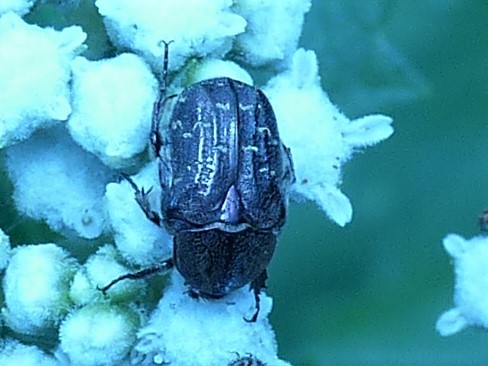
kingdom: Animalia
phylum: Arthropoda
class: Insecta
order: Coleoptera
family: Scarabaeidae
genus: Euphoria
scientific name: Euphoria sepulcralis
